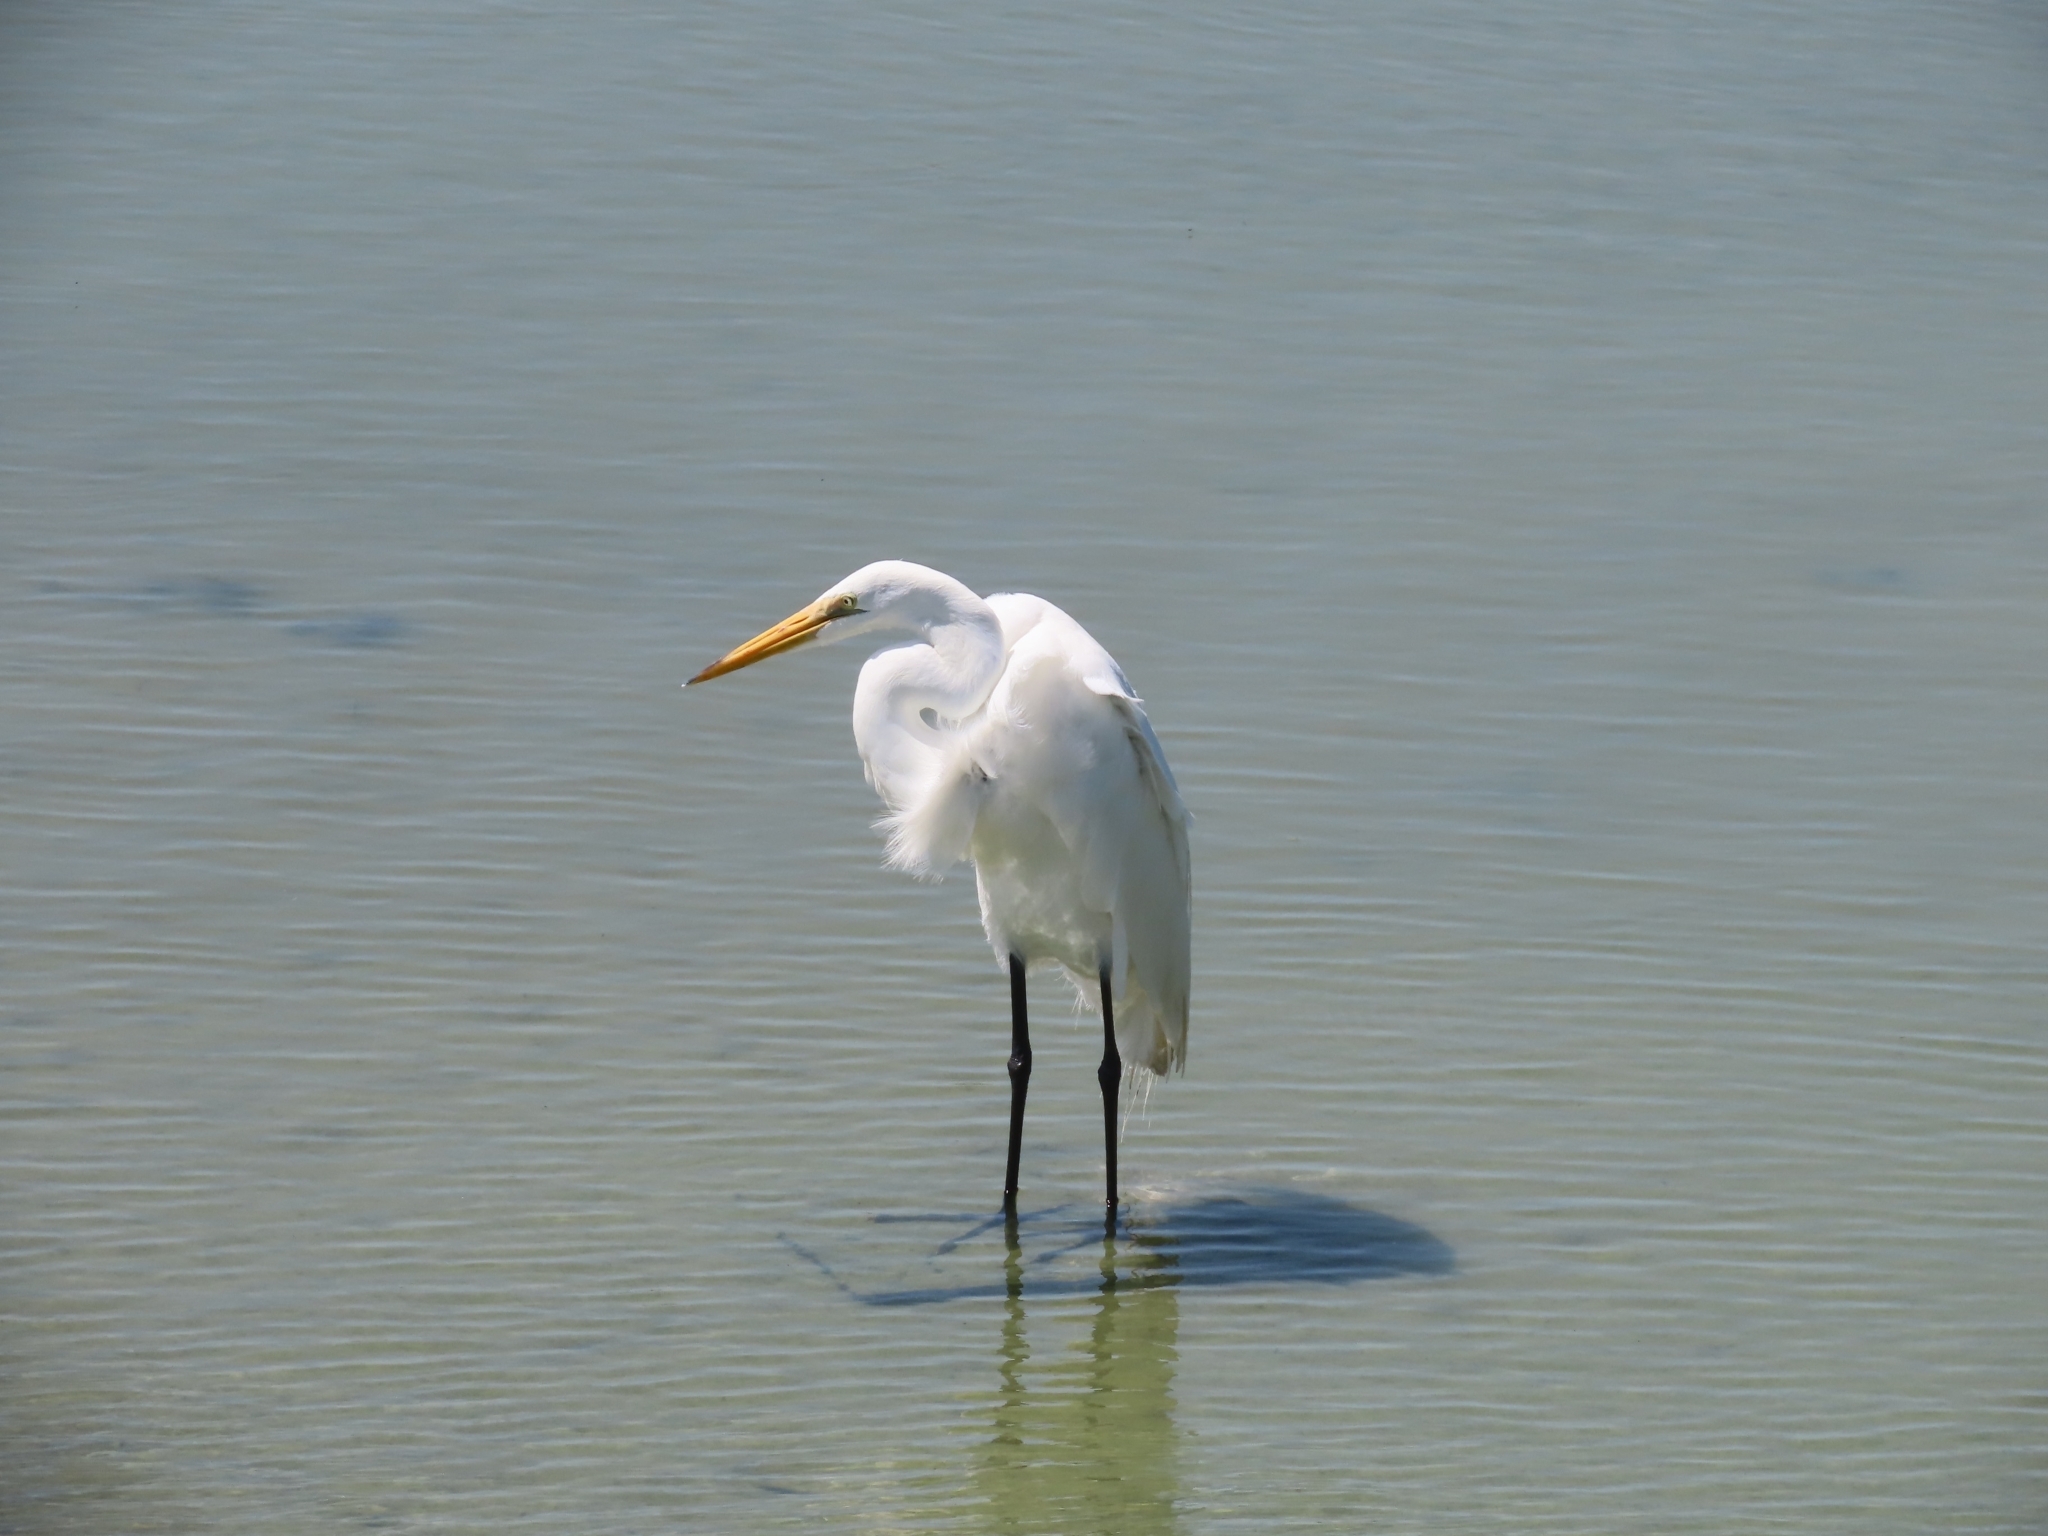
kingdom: Animalia
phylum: Chordata
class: Aves
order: Pelecaniformes
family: Ardeidae
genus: Ardea
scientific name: Ardea alba
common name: Great egret
